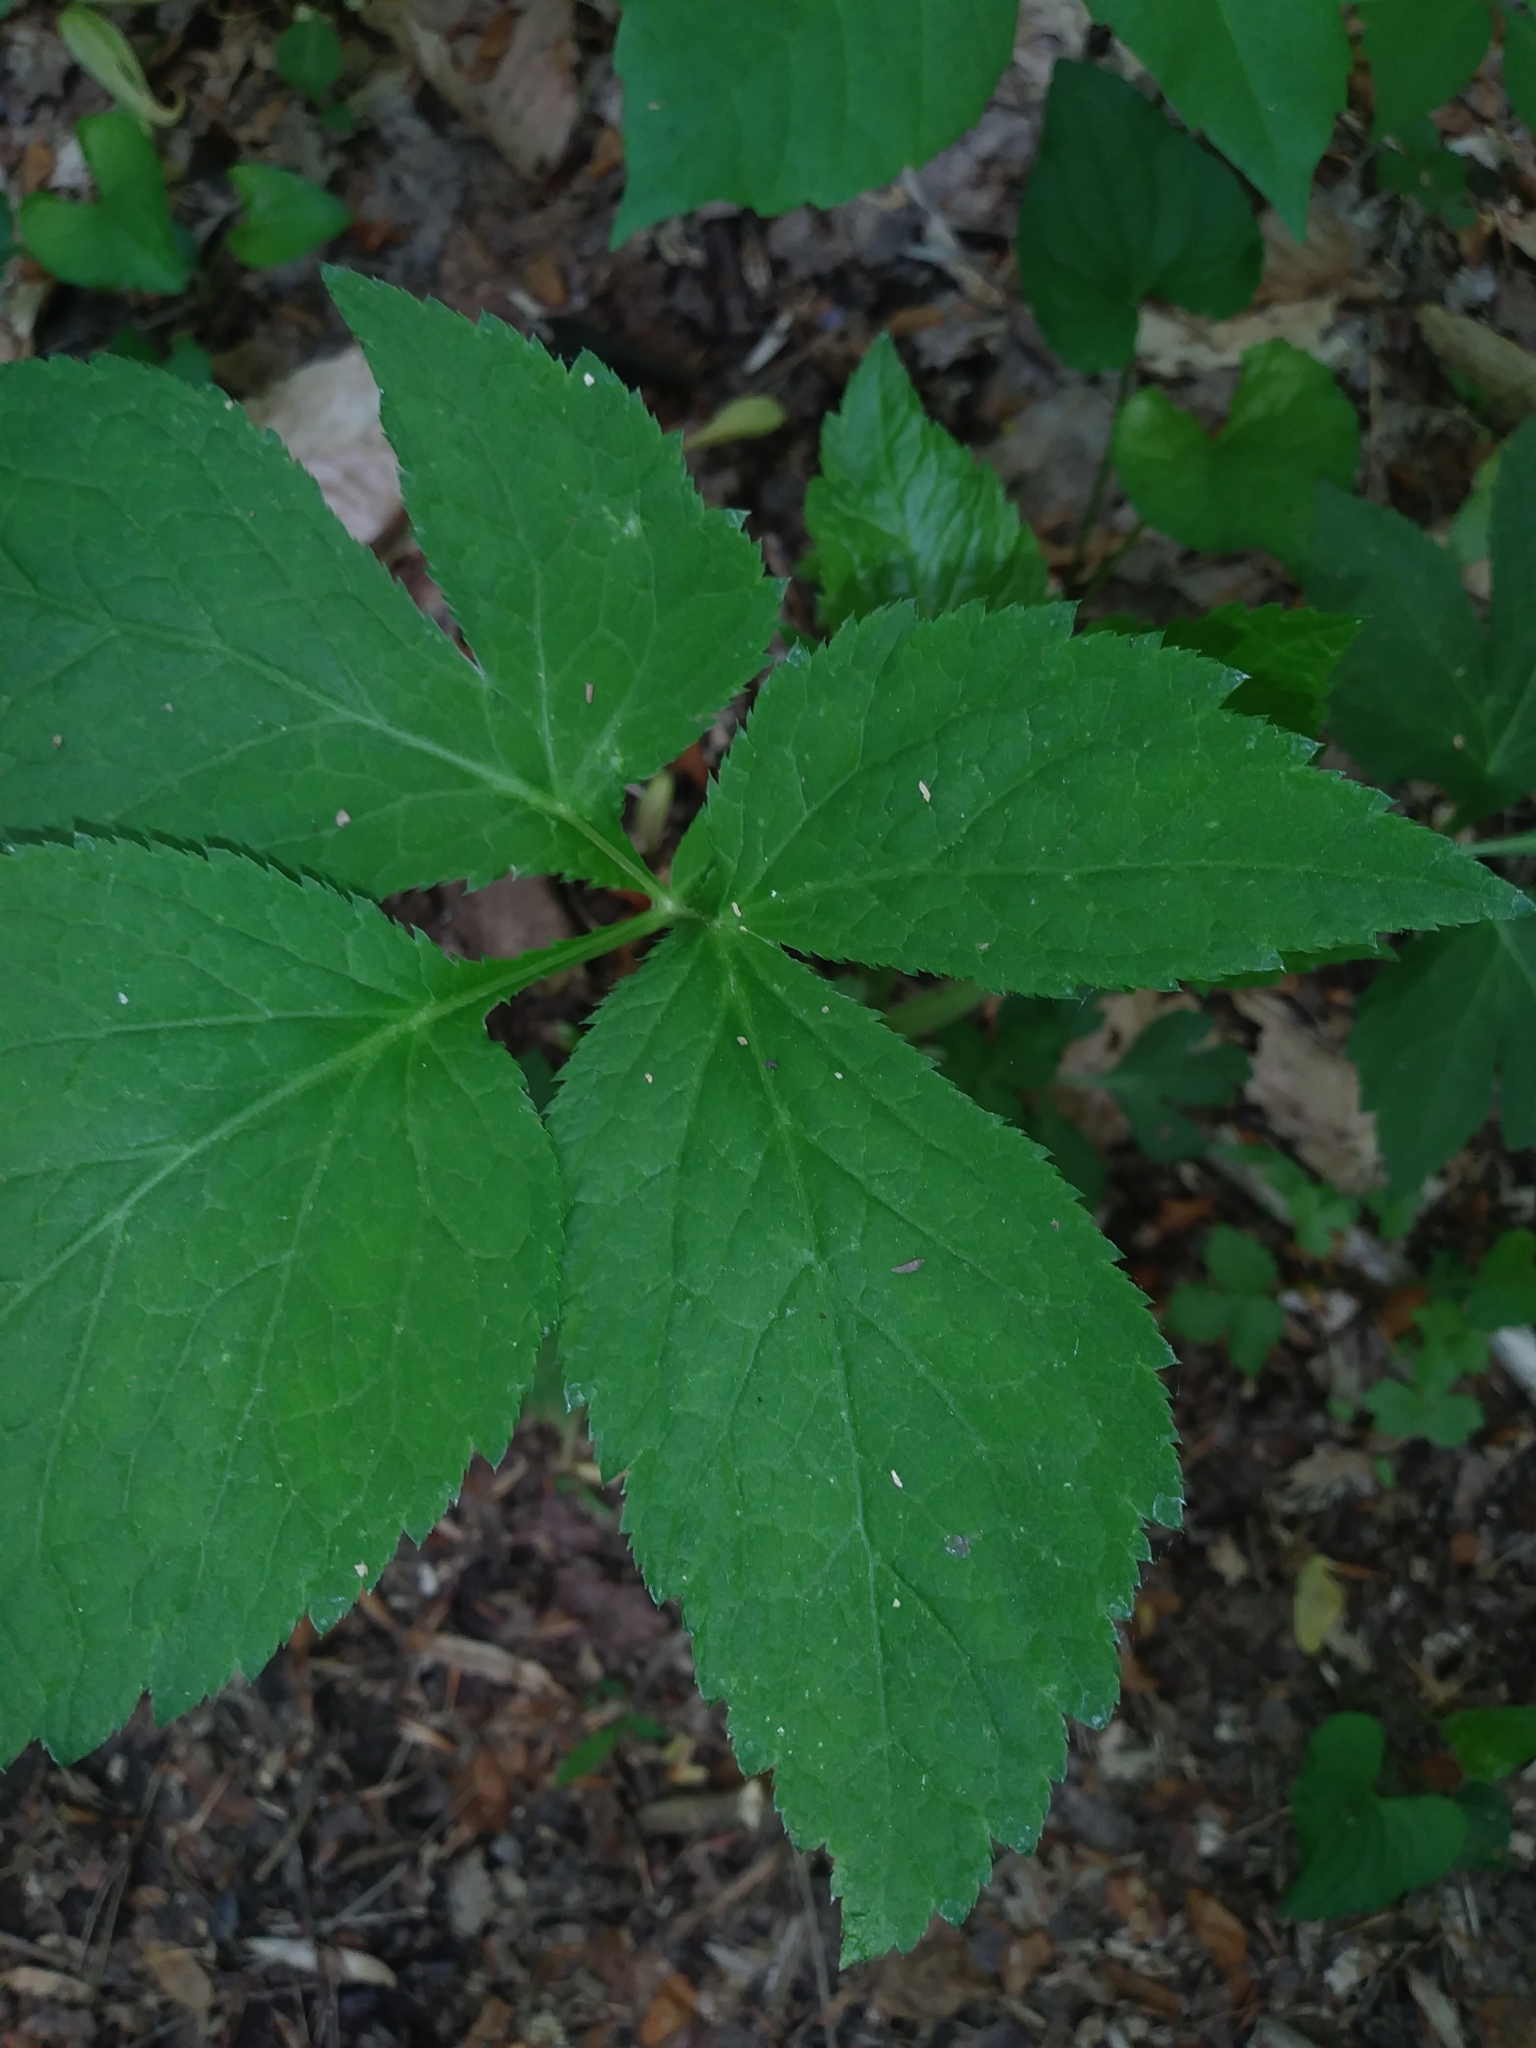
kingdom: Plantae
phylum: Tracheophyta
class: Magnoliopsida
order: Apiales
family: Apiaceae
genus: Cryptotaenia
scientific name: Cryptotaenia canadensis
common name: Honewort
